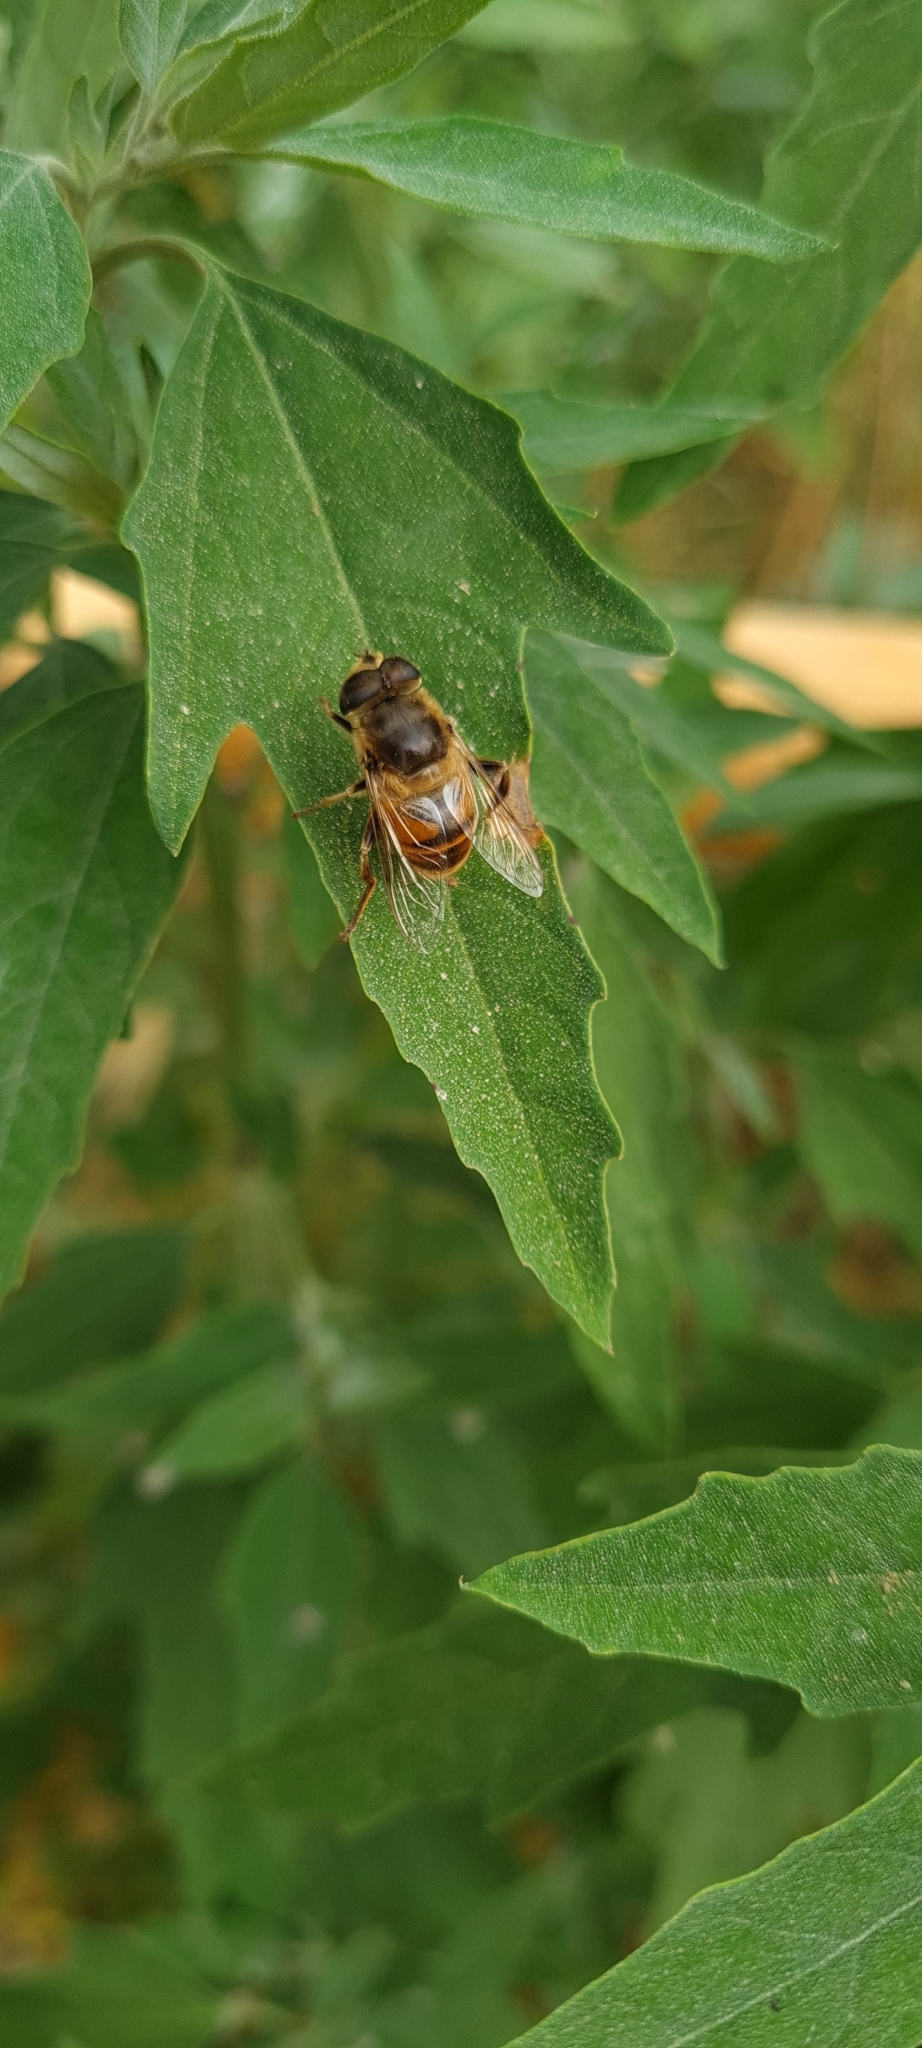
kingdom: Animalia
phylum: Arthropoda
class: Insecta
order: Diptera
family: Syrphidae
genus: Eristalis
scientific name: Eristalis tenax
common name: Drone fly
